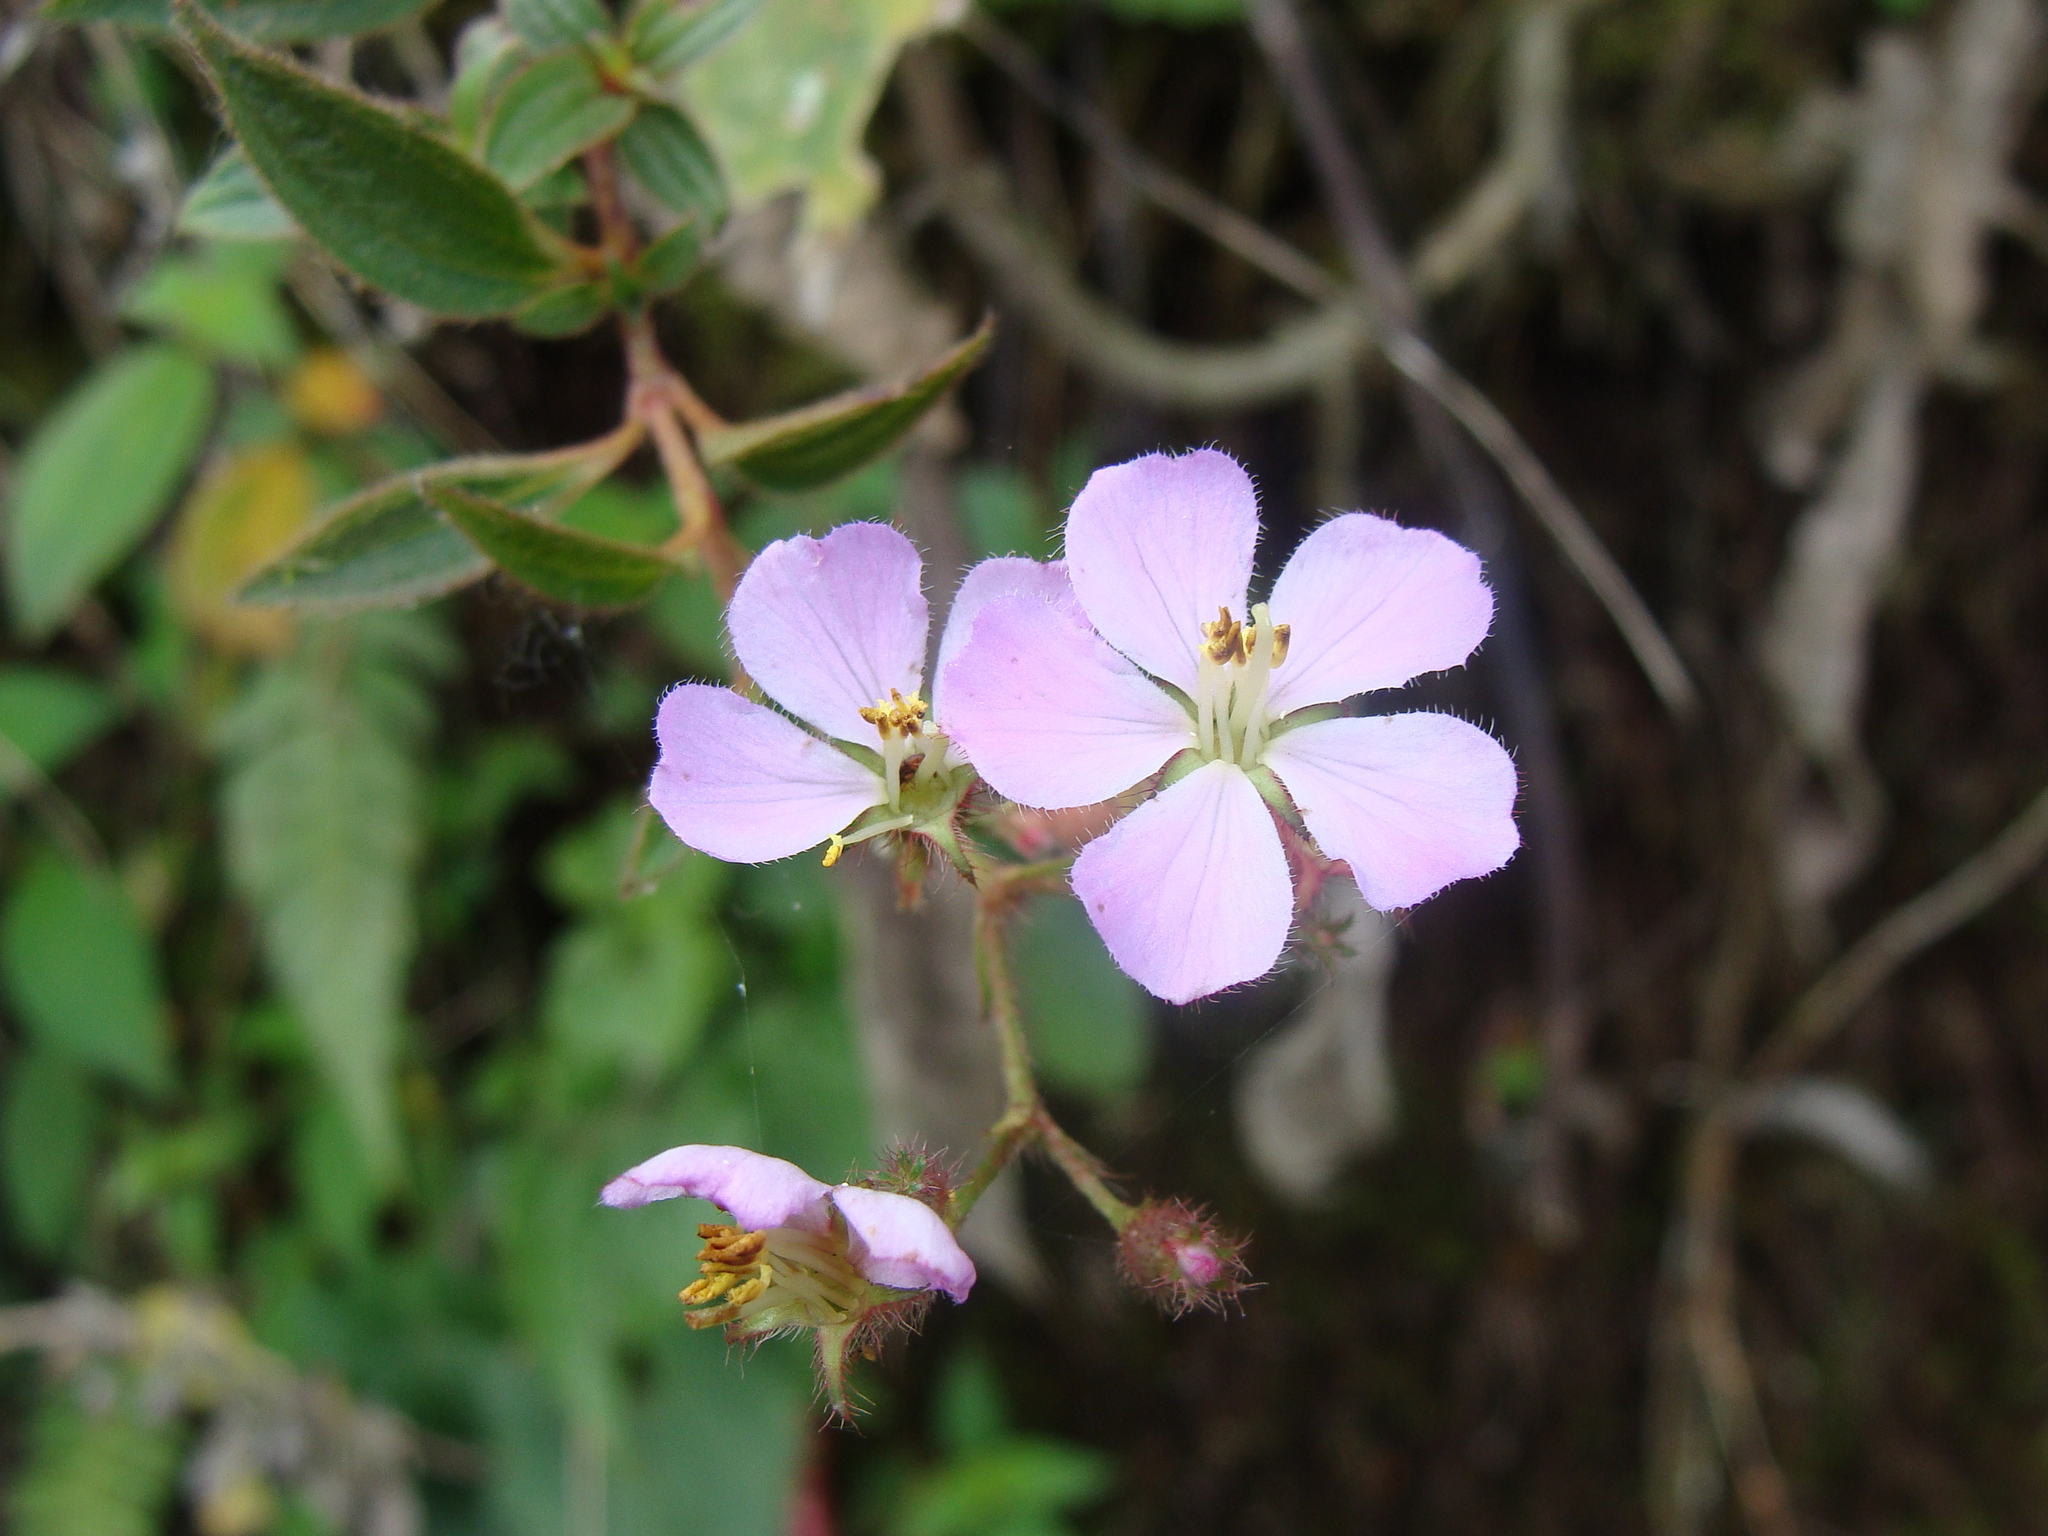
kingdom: Plantae
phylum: Tracheophyta
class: Magnoliopsida
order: Myrtales
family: Melastomataceae
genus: Chaetogastra
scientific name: Chaetogastra naudiniana
